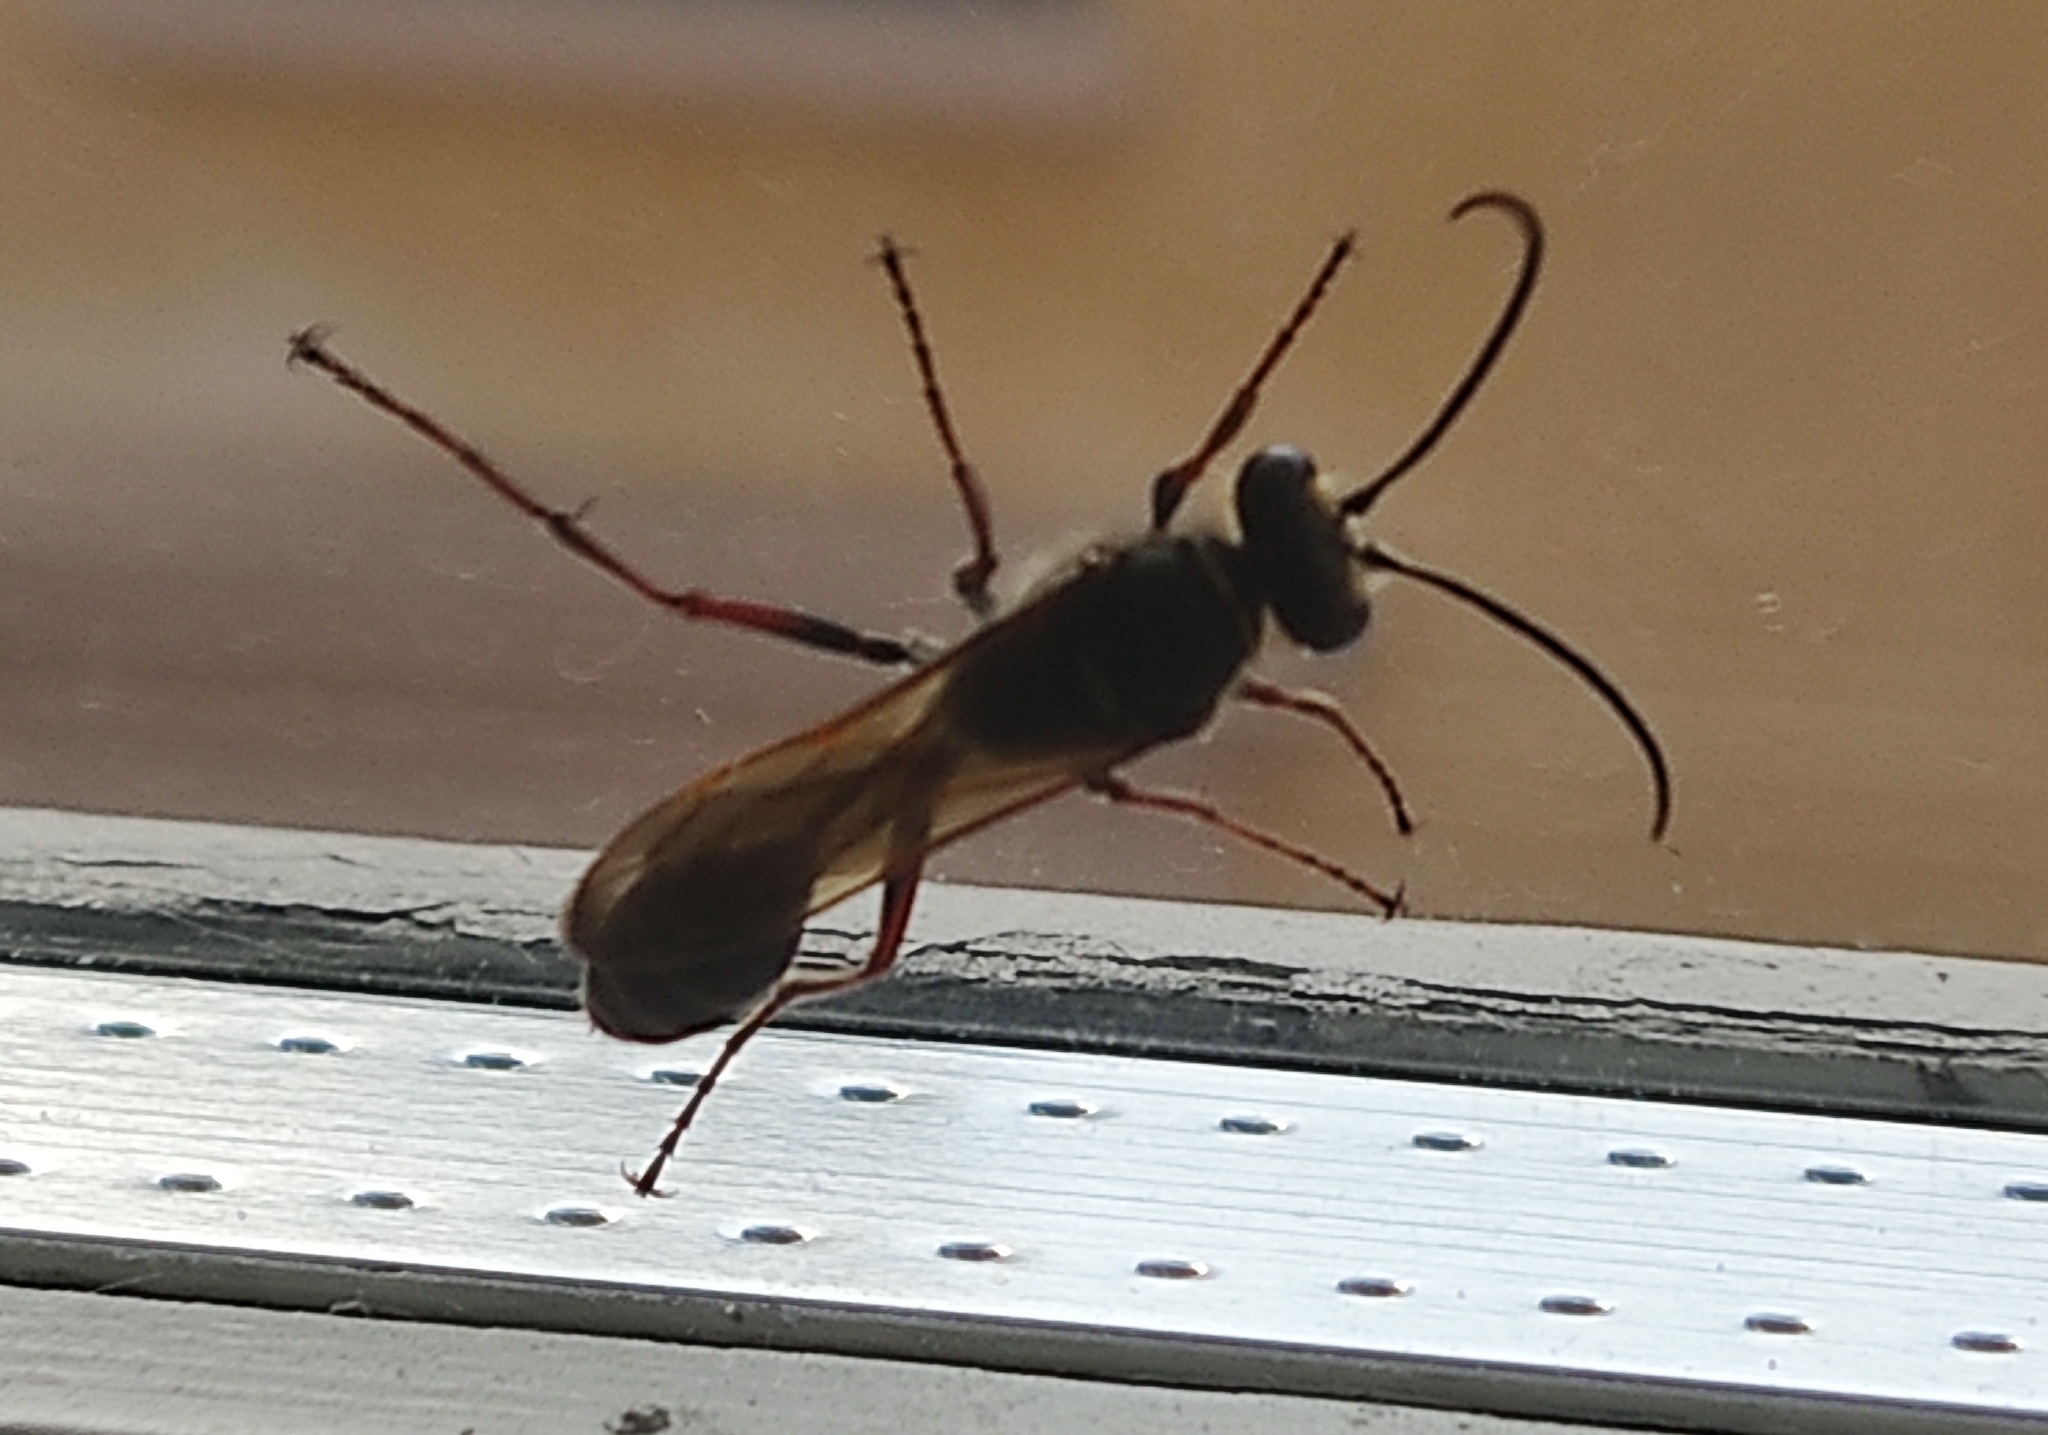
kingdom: Animalia
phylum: Arthropoda
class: Insecta
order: Hymenoptera
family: Sphecidae
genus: Sceliphron
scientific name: Sceliphron curvatum
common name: Pèlopèe
